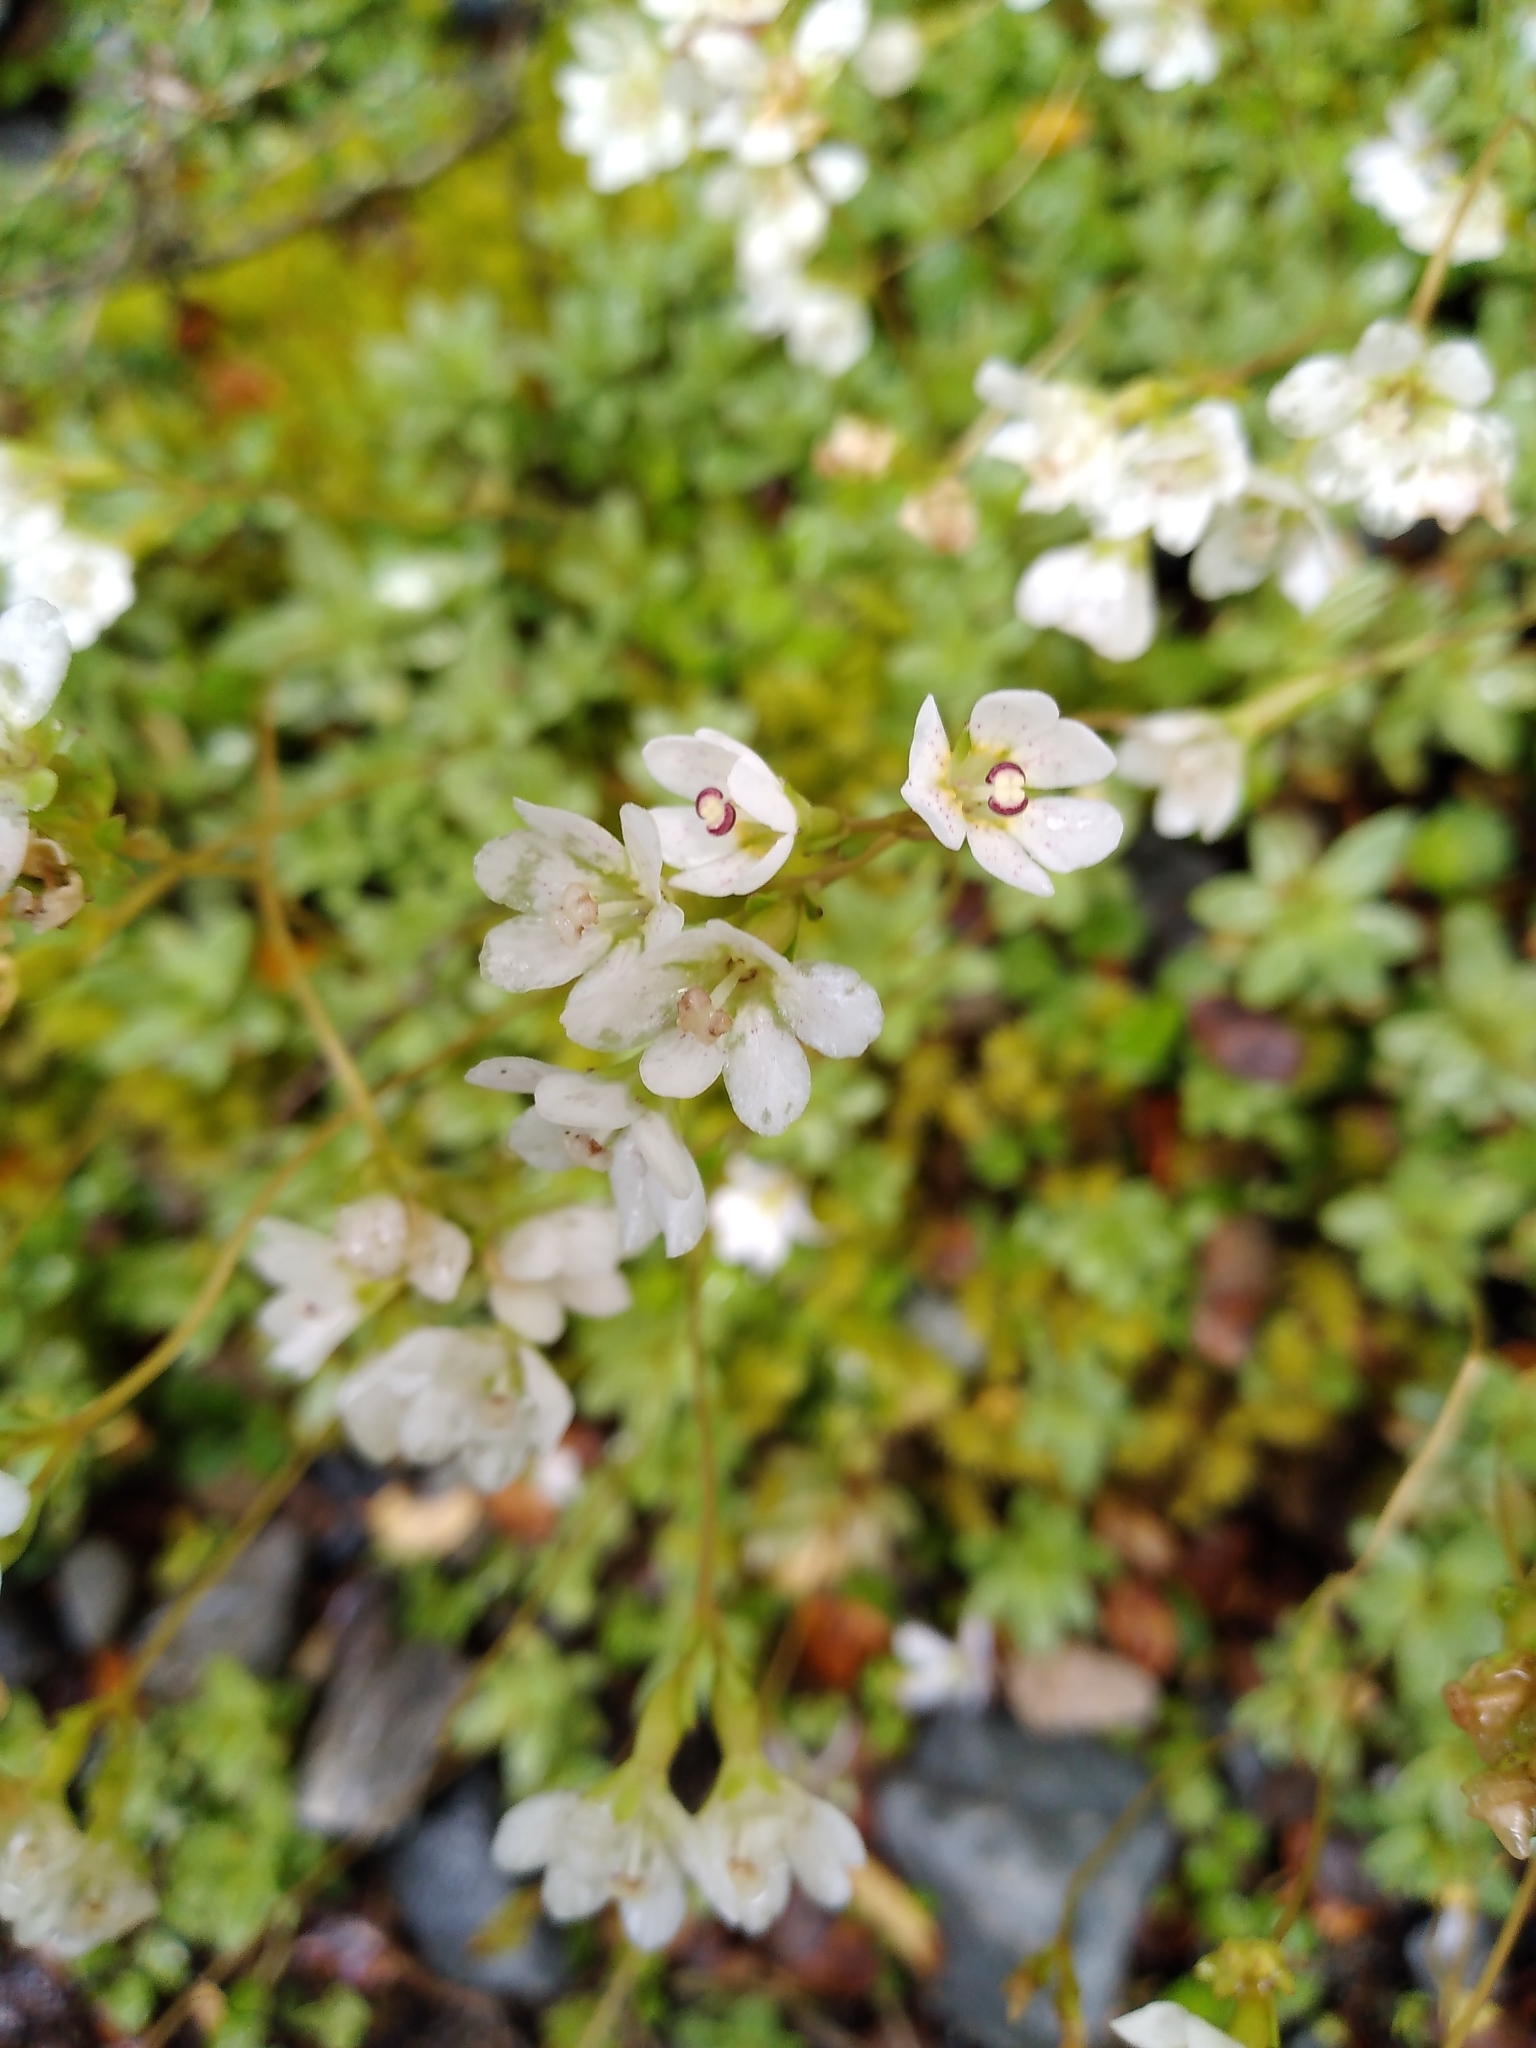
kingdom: Plantae
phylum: Tracheophyta
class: Magnoliopsida
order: Asterales
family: Stylidiaceae
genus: Forstera
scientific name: Forstera tenella
